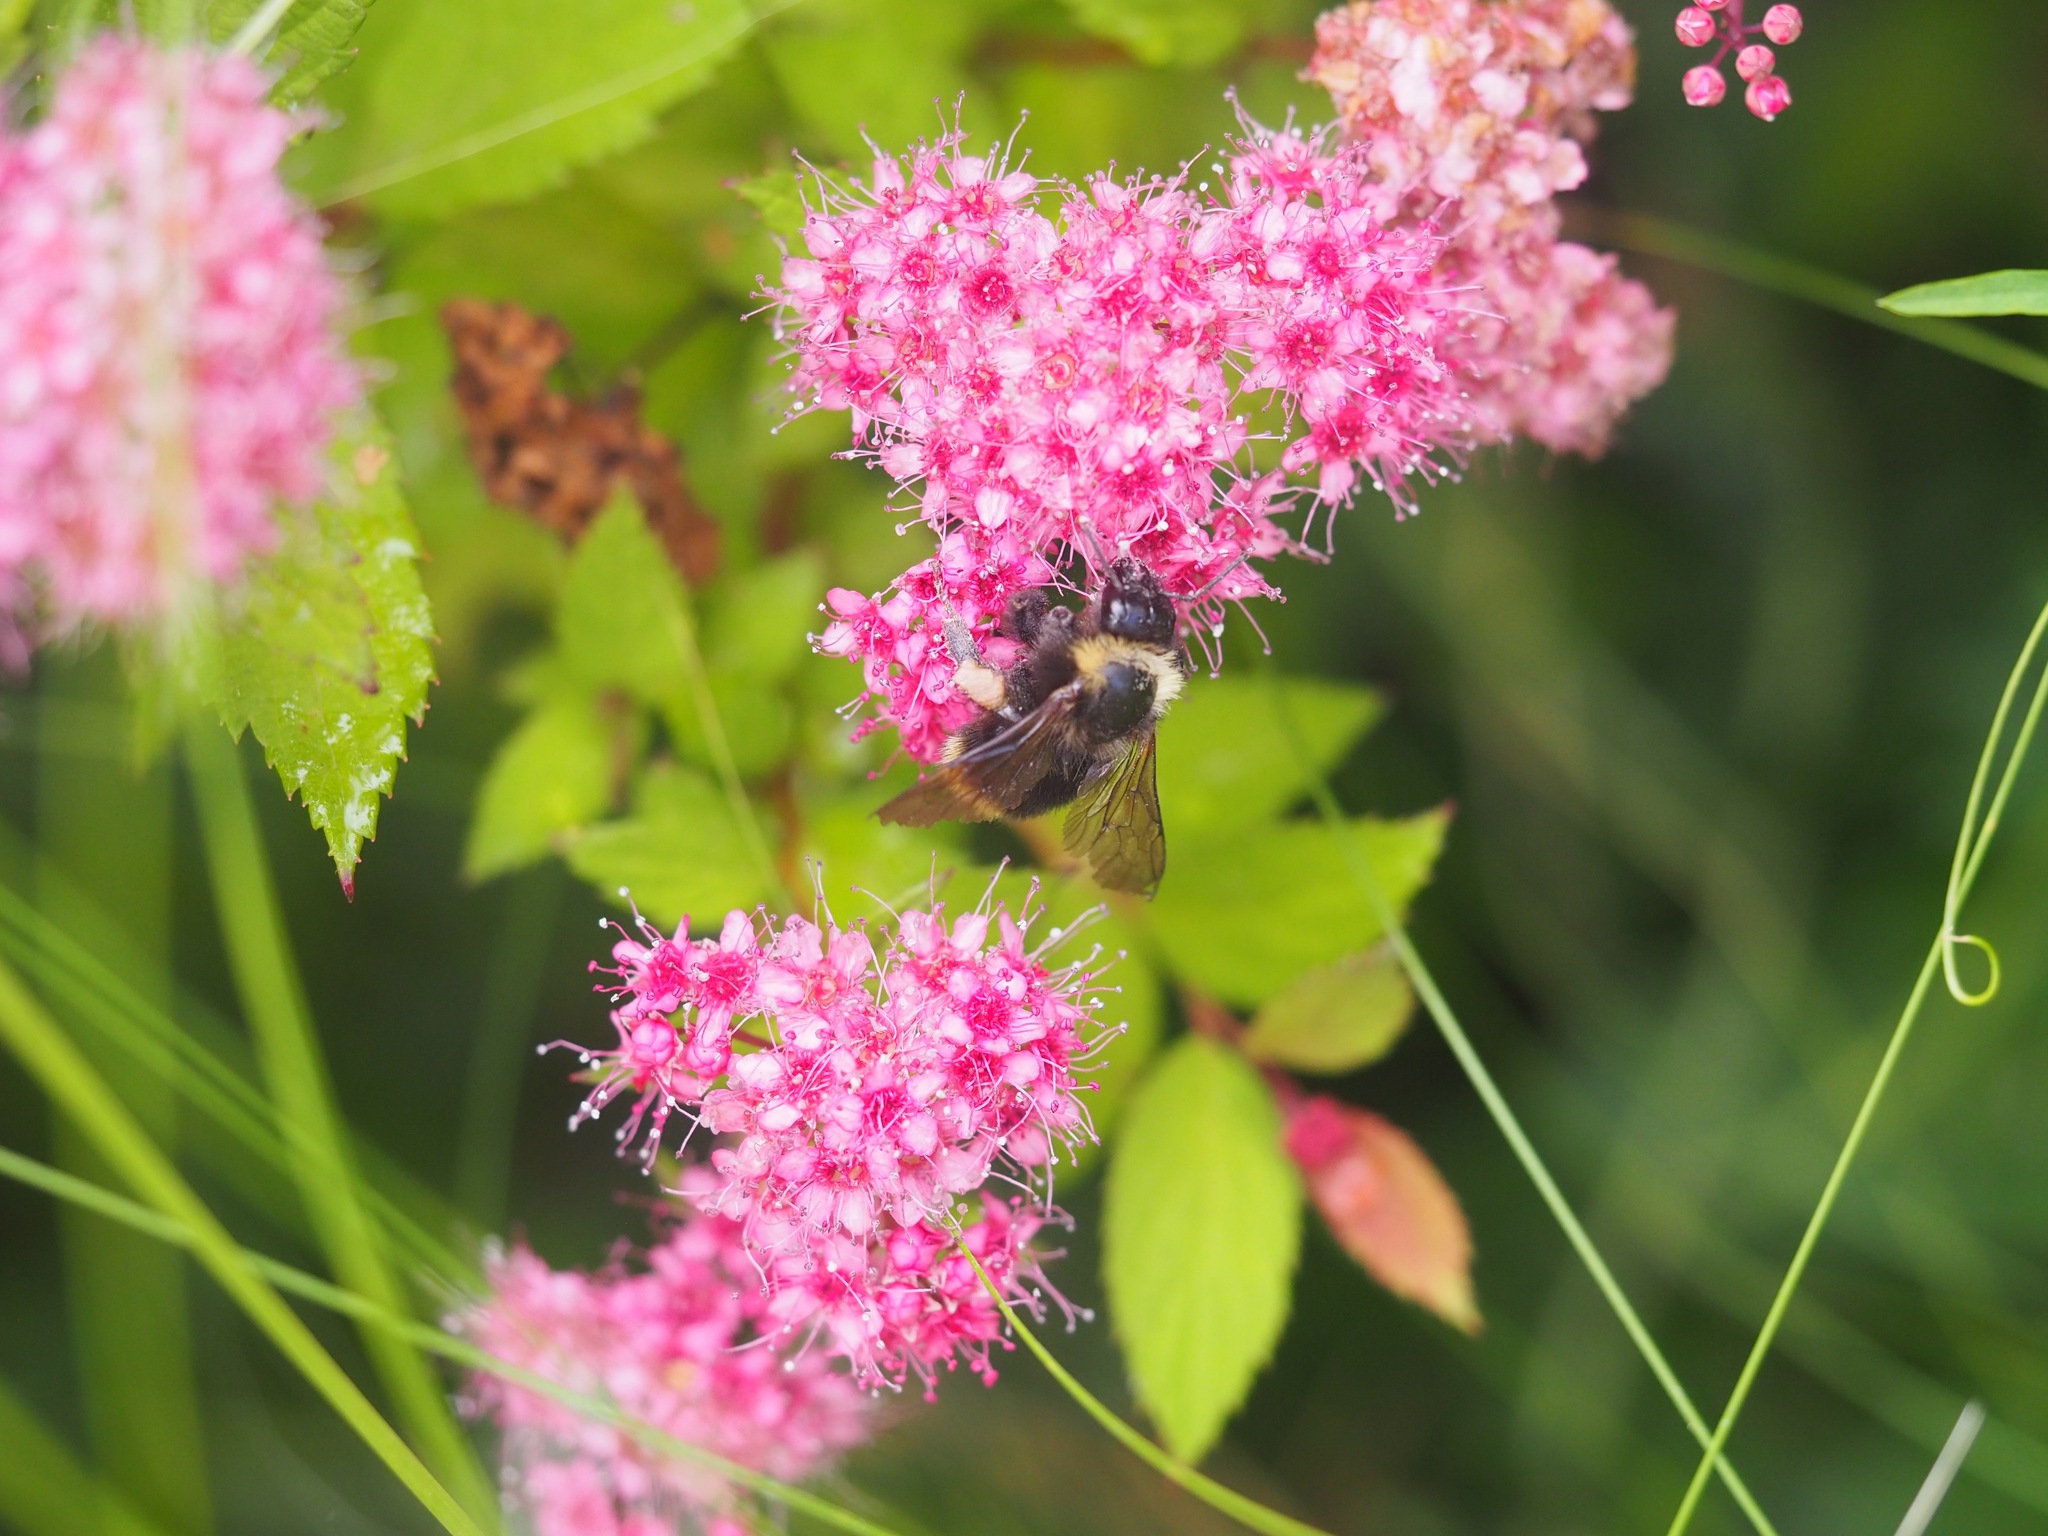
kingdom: Animalia
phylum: Arthropoda
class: Insecta
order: Hymenoptera
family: Apidae
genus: Bombus
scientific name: Bombus californicus
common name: California bumble bee
